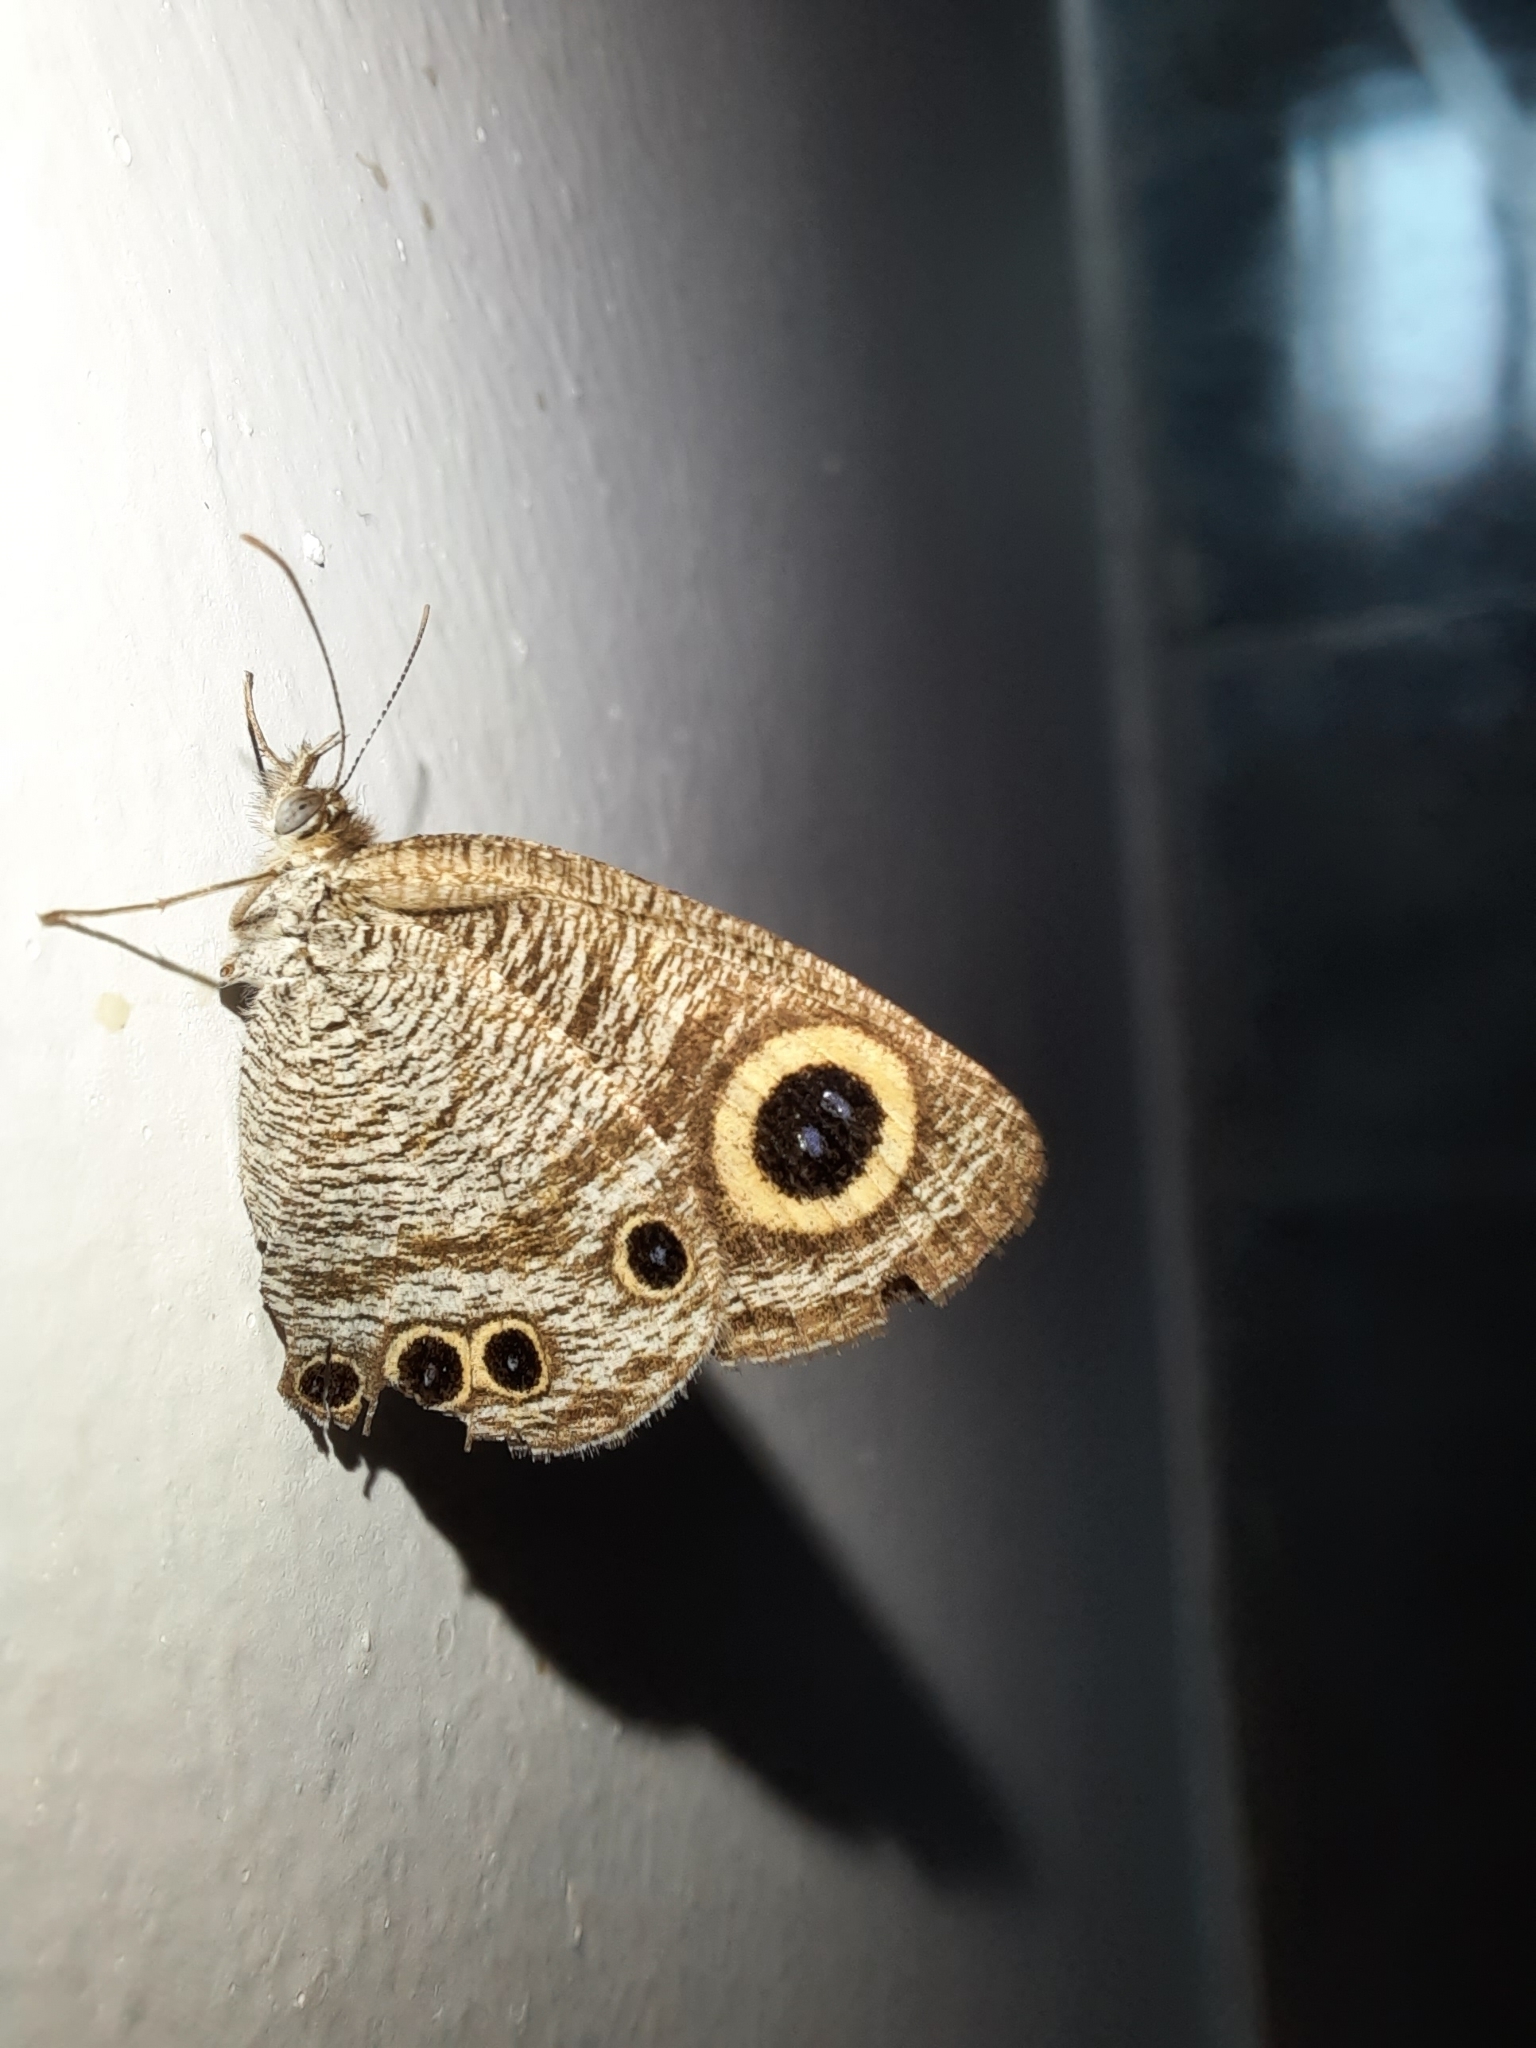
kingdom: Animalia
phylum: Arthropoda
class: Insecta
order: Lepidoptera
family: Nymphalidae
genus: Ypthima
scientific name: Ypthima huebneri
